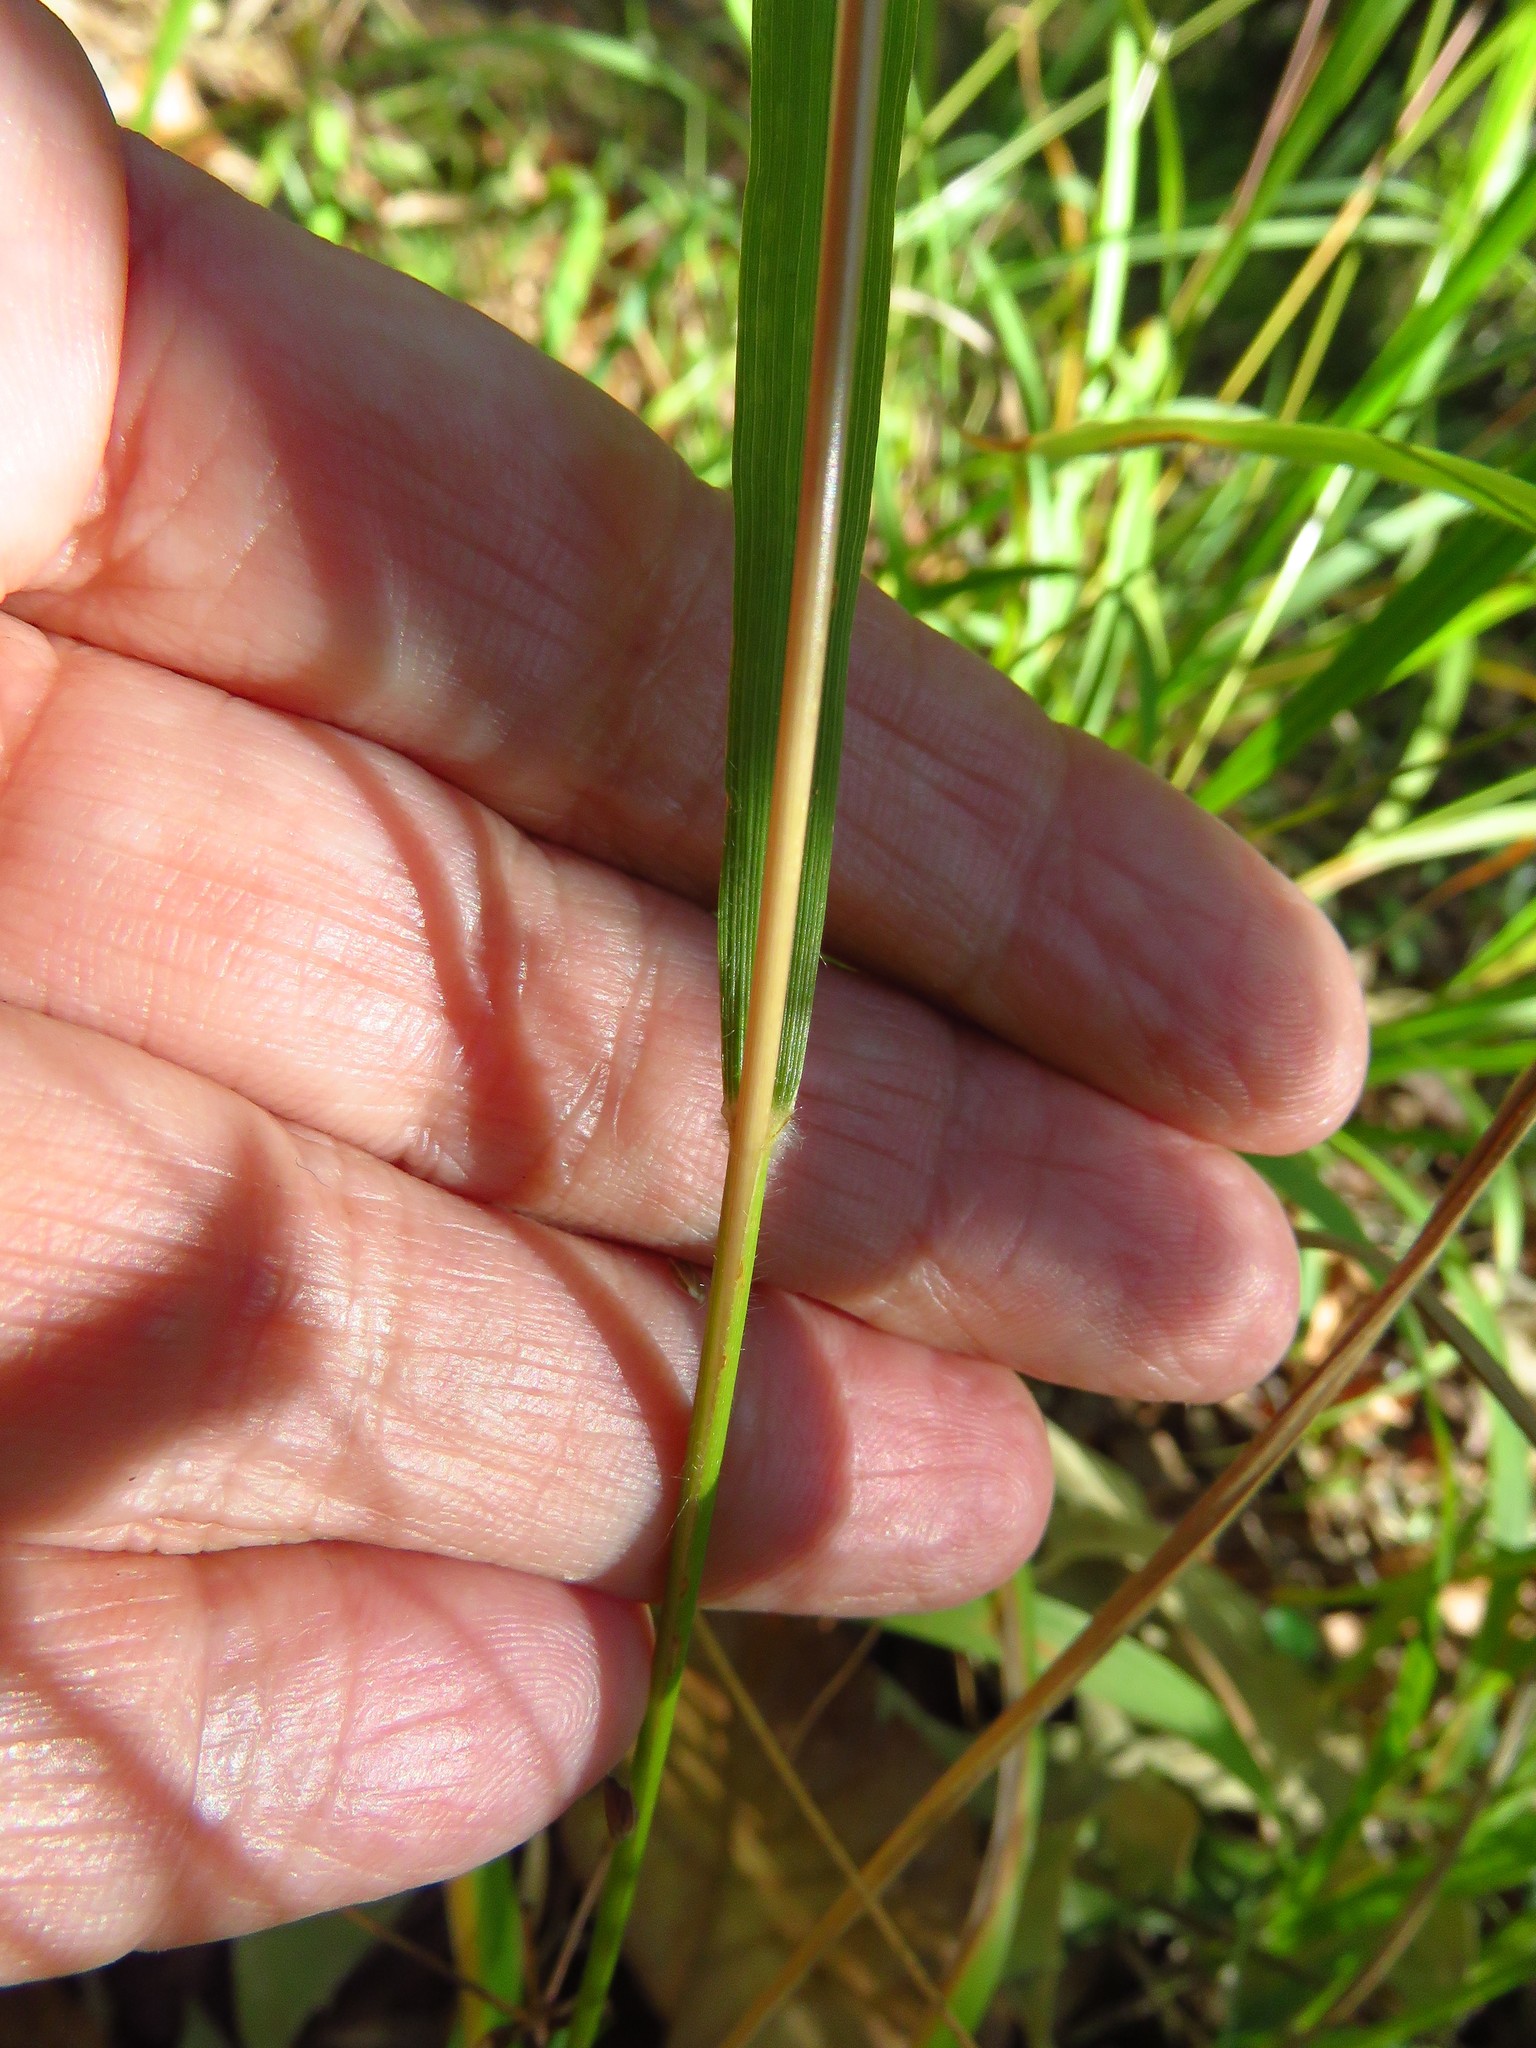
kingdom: Plantae
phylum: Tracheophyta
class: Liliopsida
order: Poales
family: Poaceae
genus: Chasmanthium
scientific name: Chasmanthium laxum
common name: Slender chasmanthium
